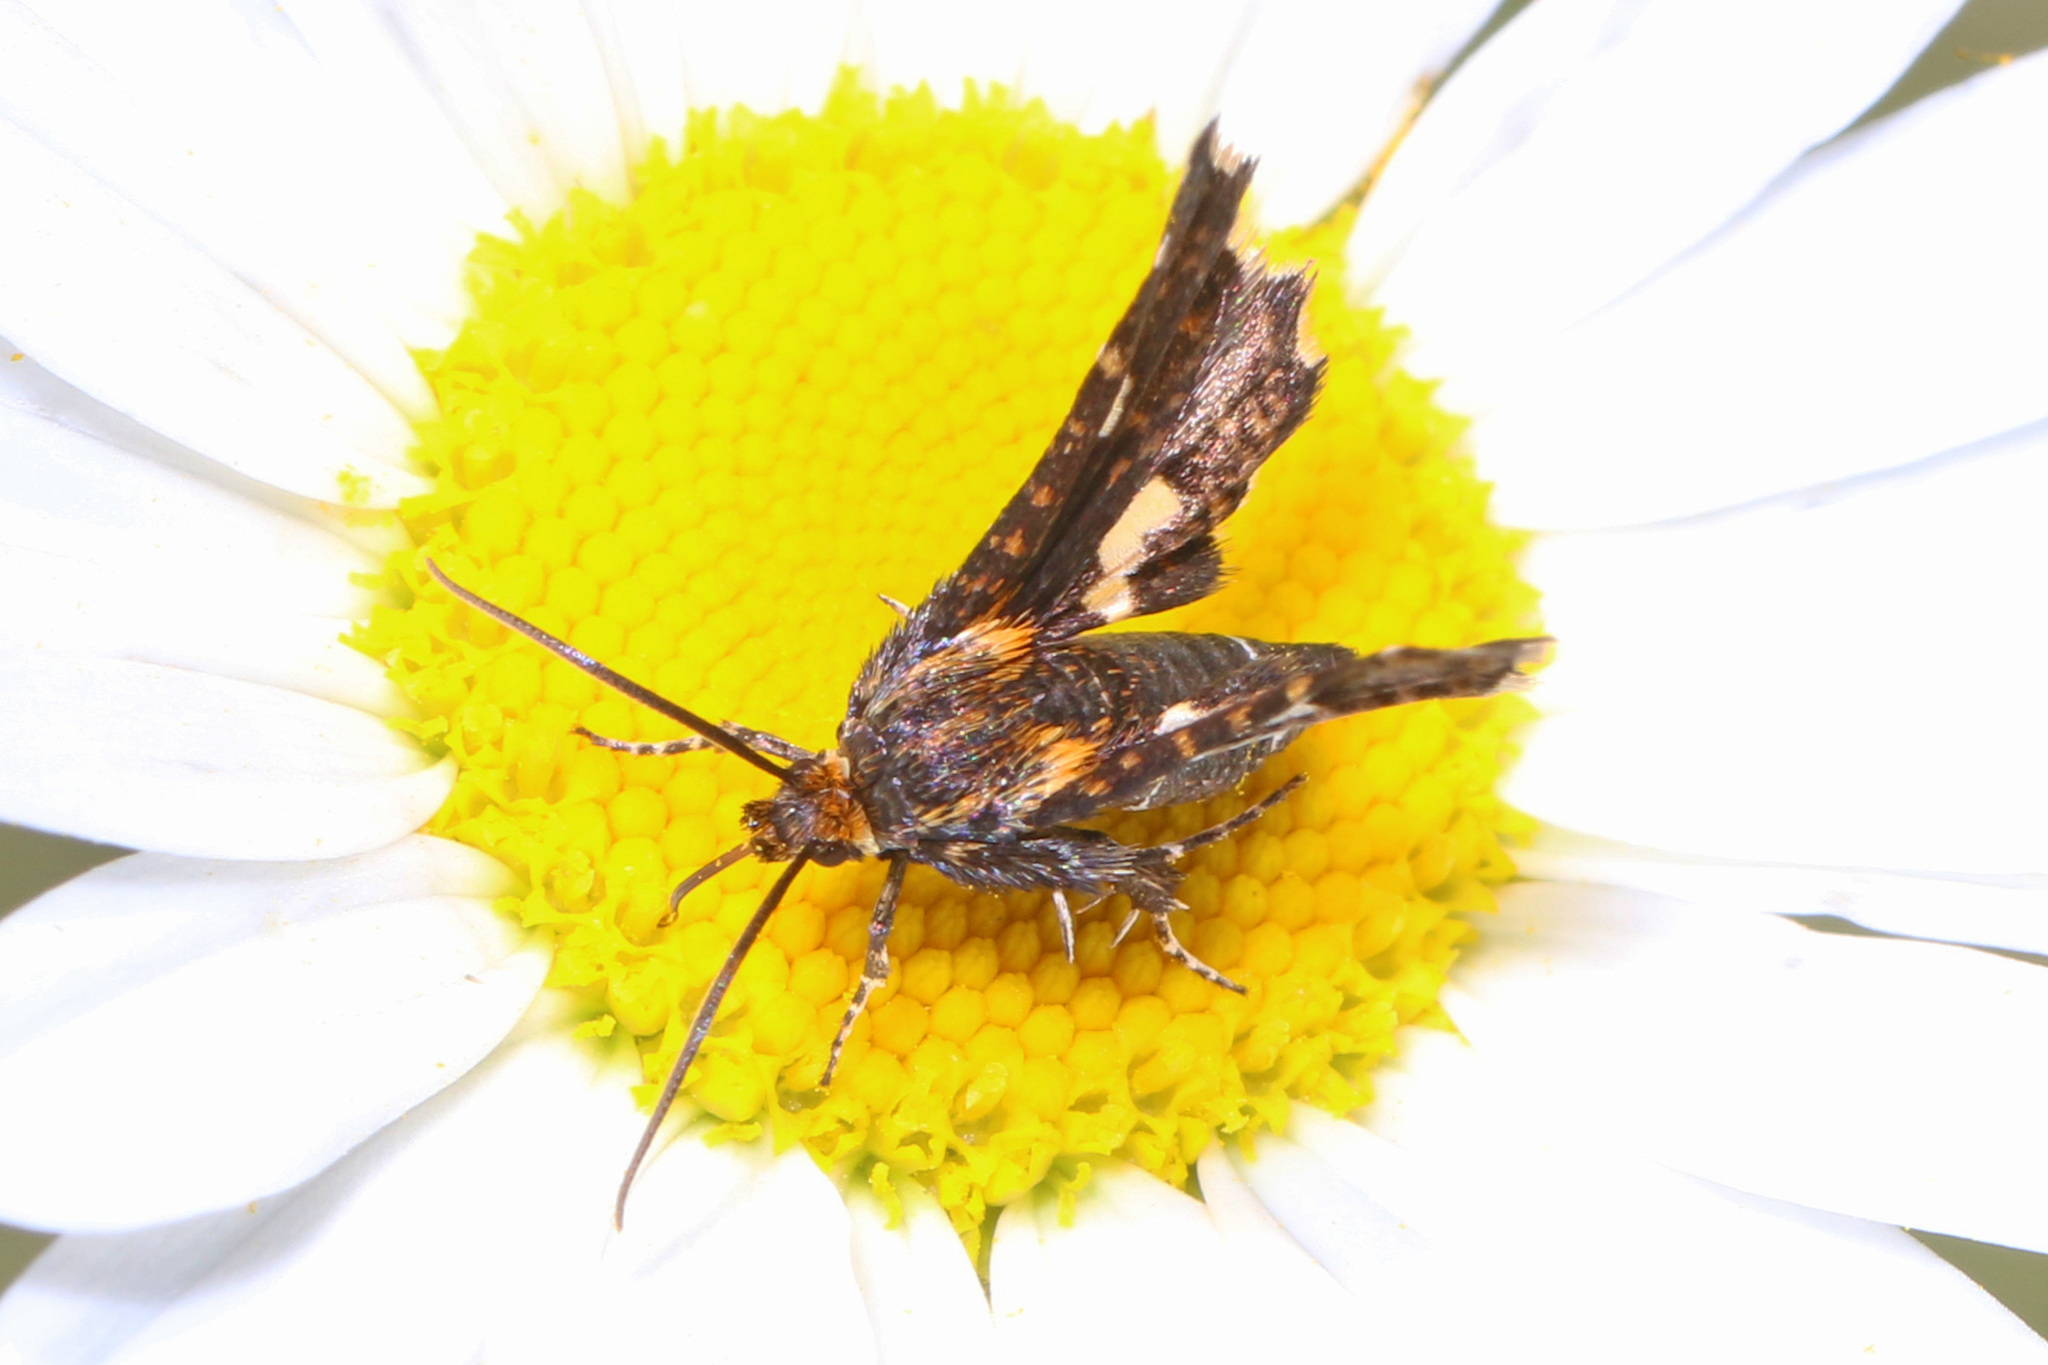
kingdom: Animalia
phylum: Arthropoda
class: Insecta
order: Lepidoptera
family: Thyrididae
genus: Thyris
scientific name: Thyris maculata
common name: Spotted thyris moth
